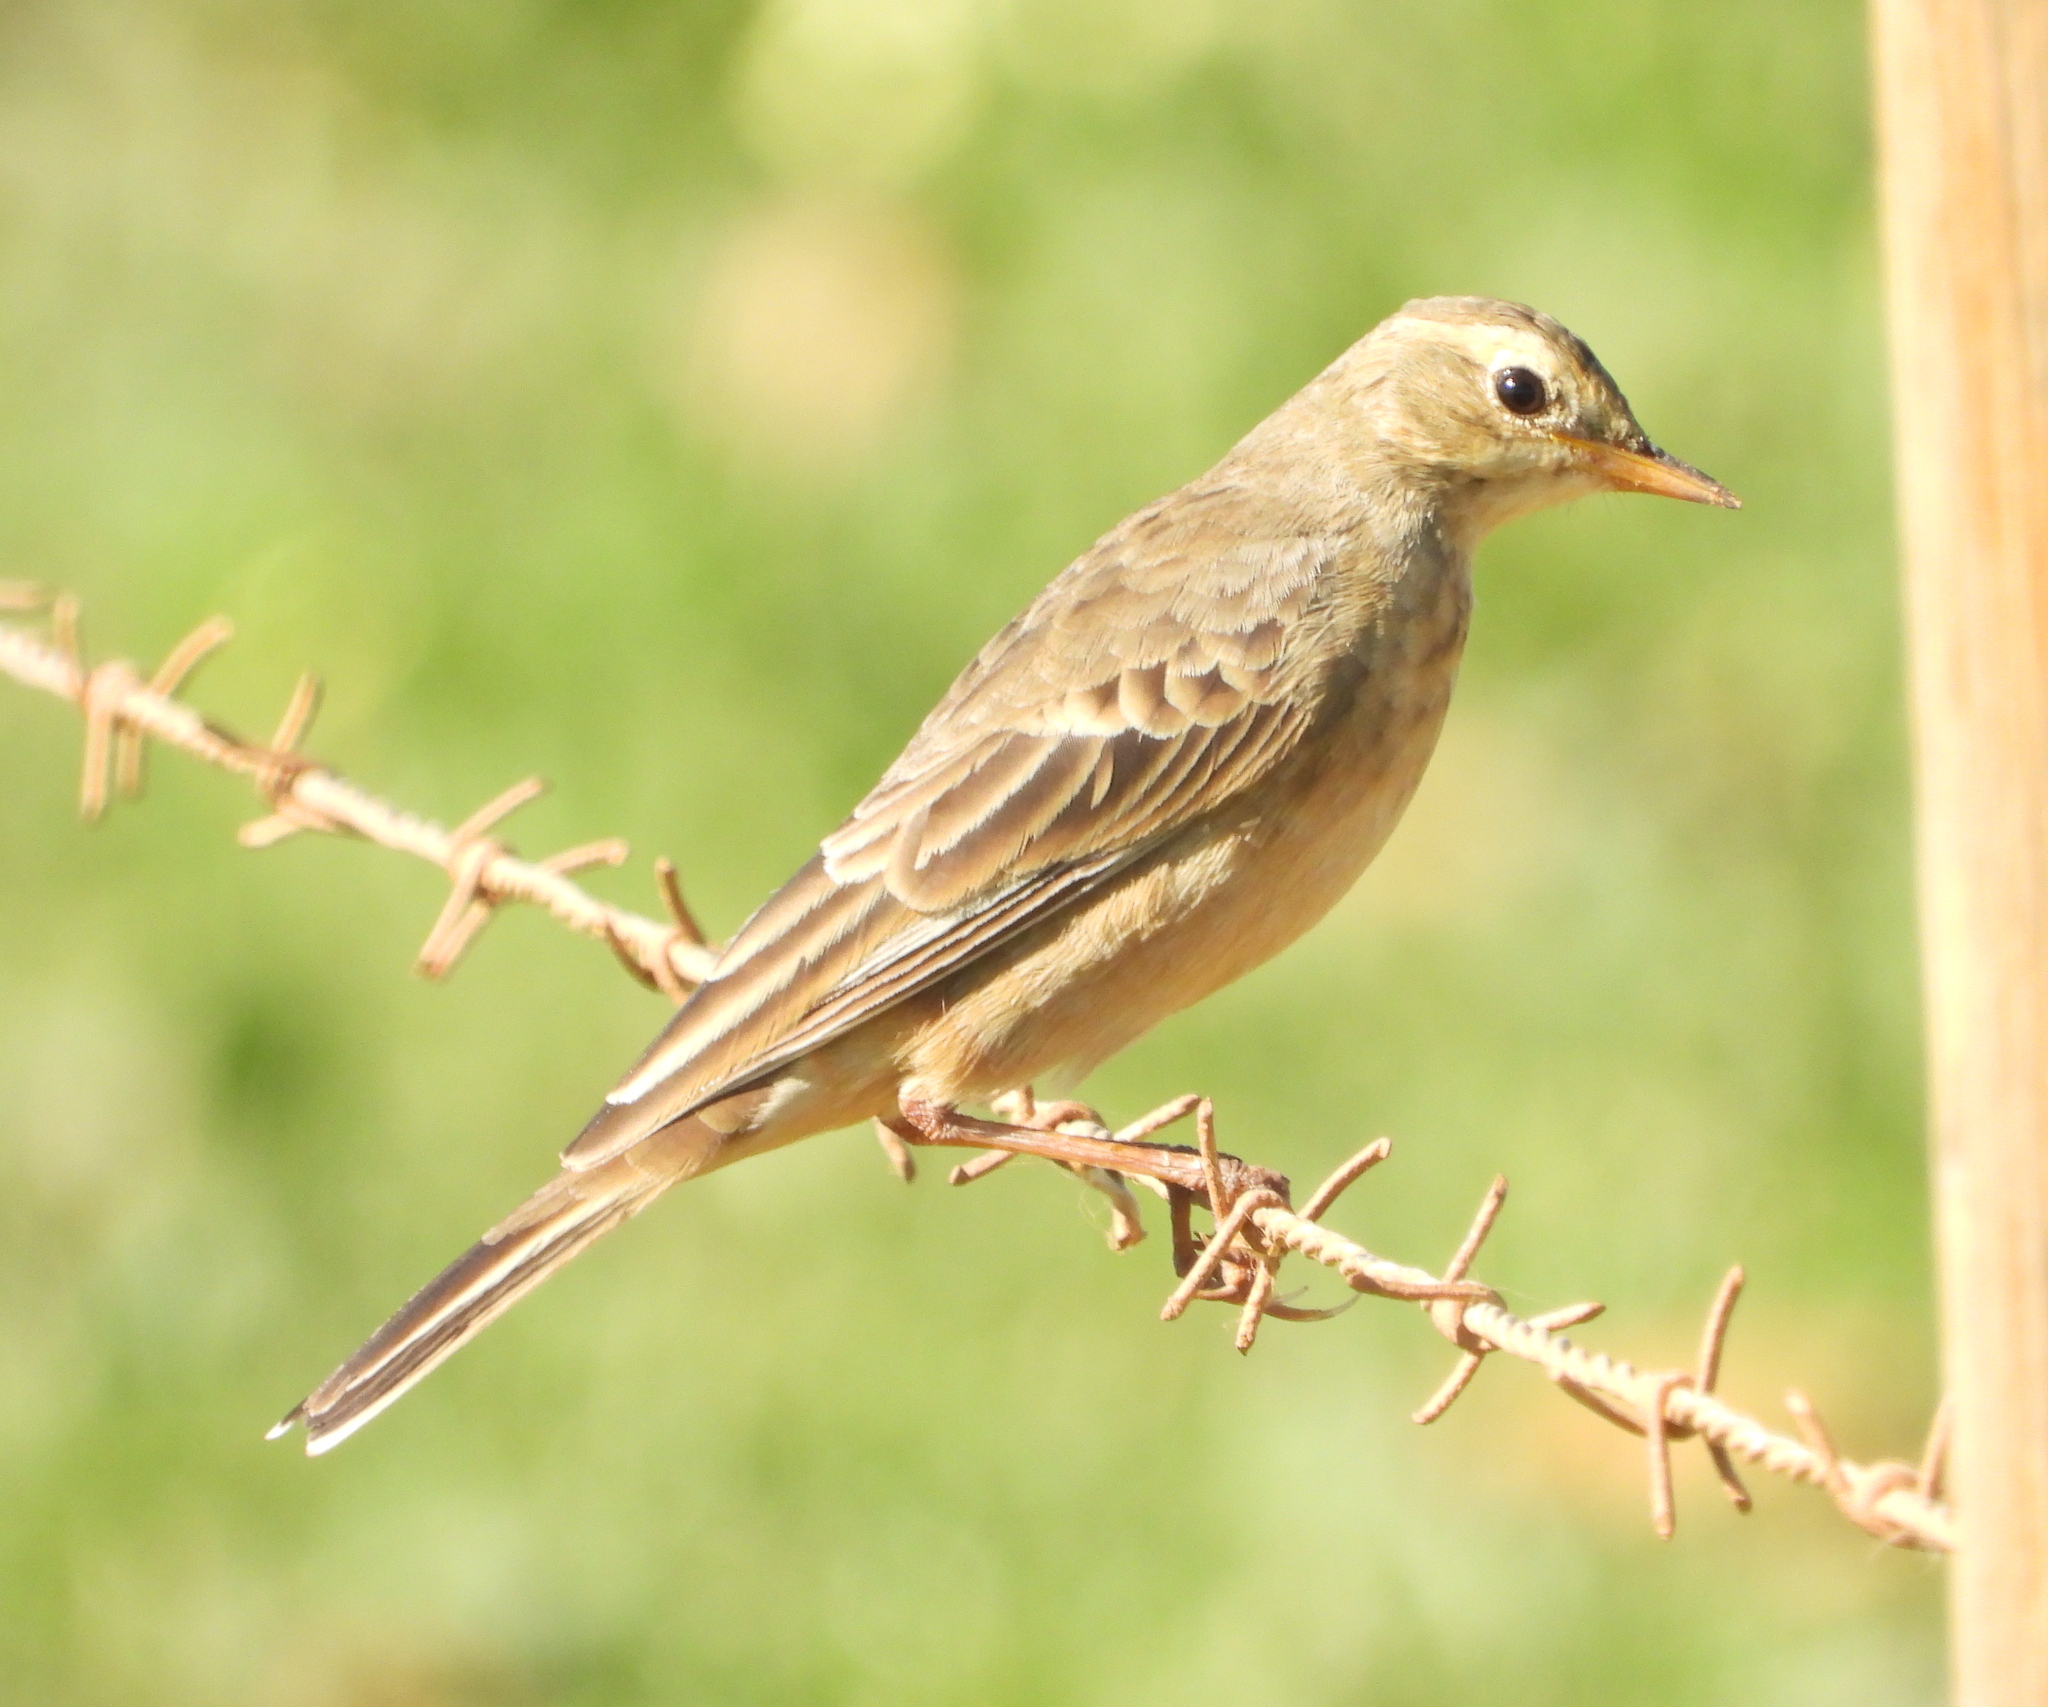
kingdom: Animalia
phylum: Chordata
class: Aves
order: Passeriformes
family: Motacillidae
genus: Anthus
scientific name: Anthus leucophrys
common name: Plain-backed pipit
